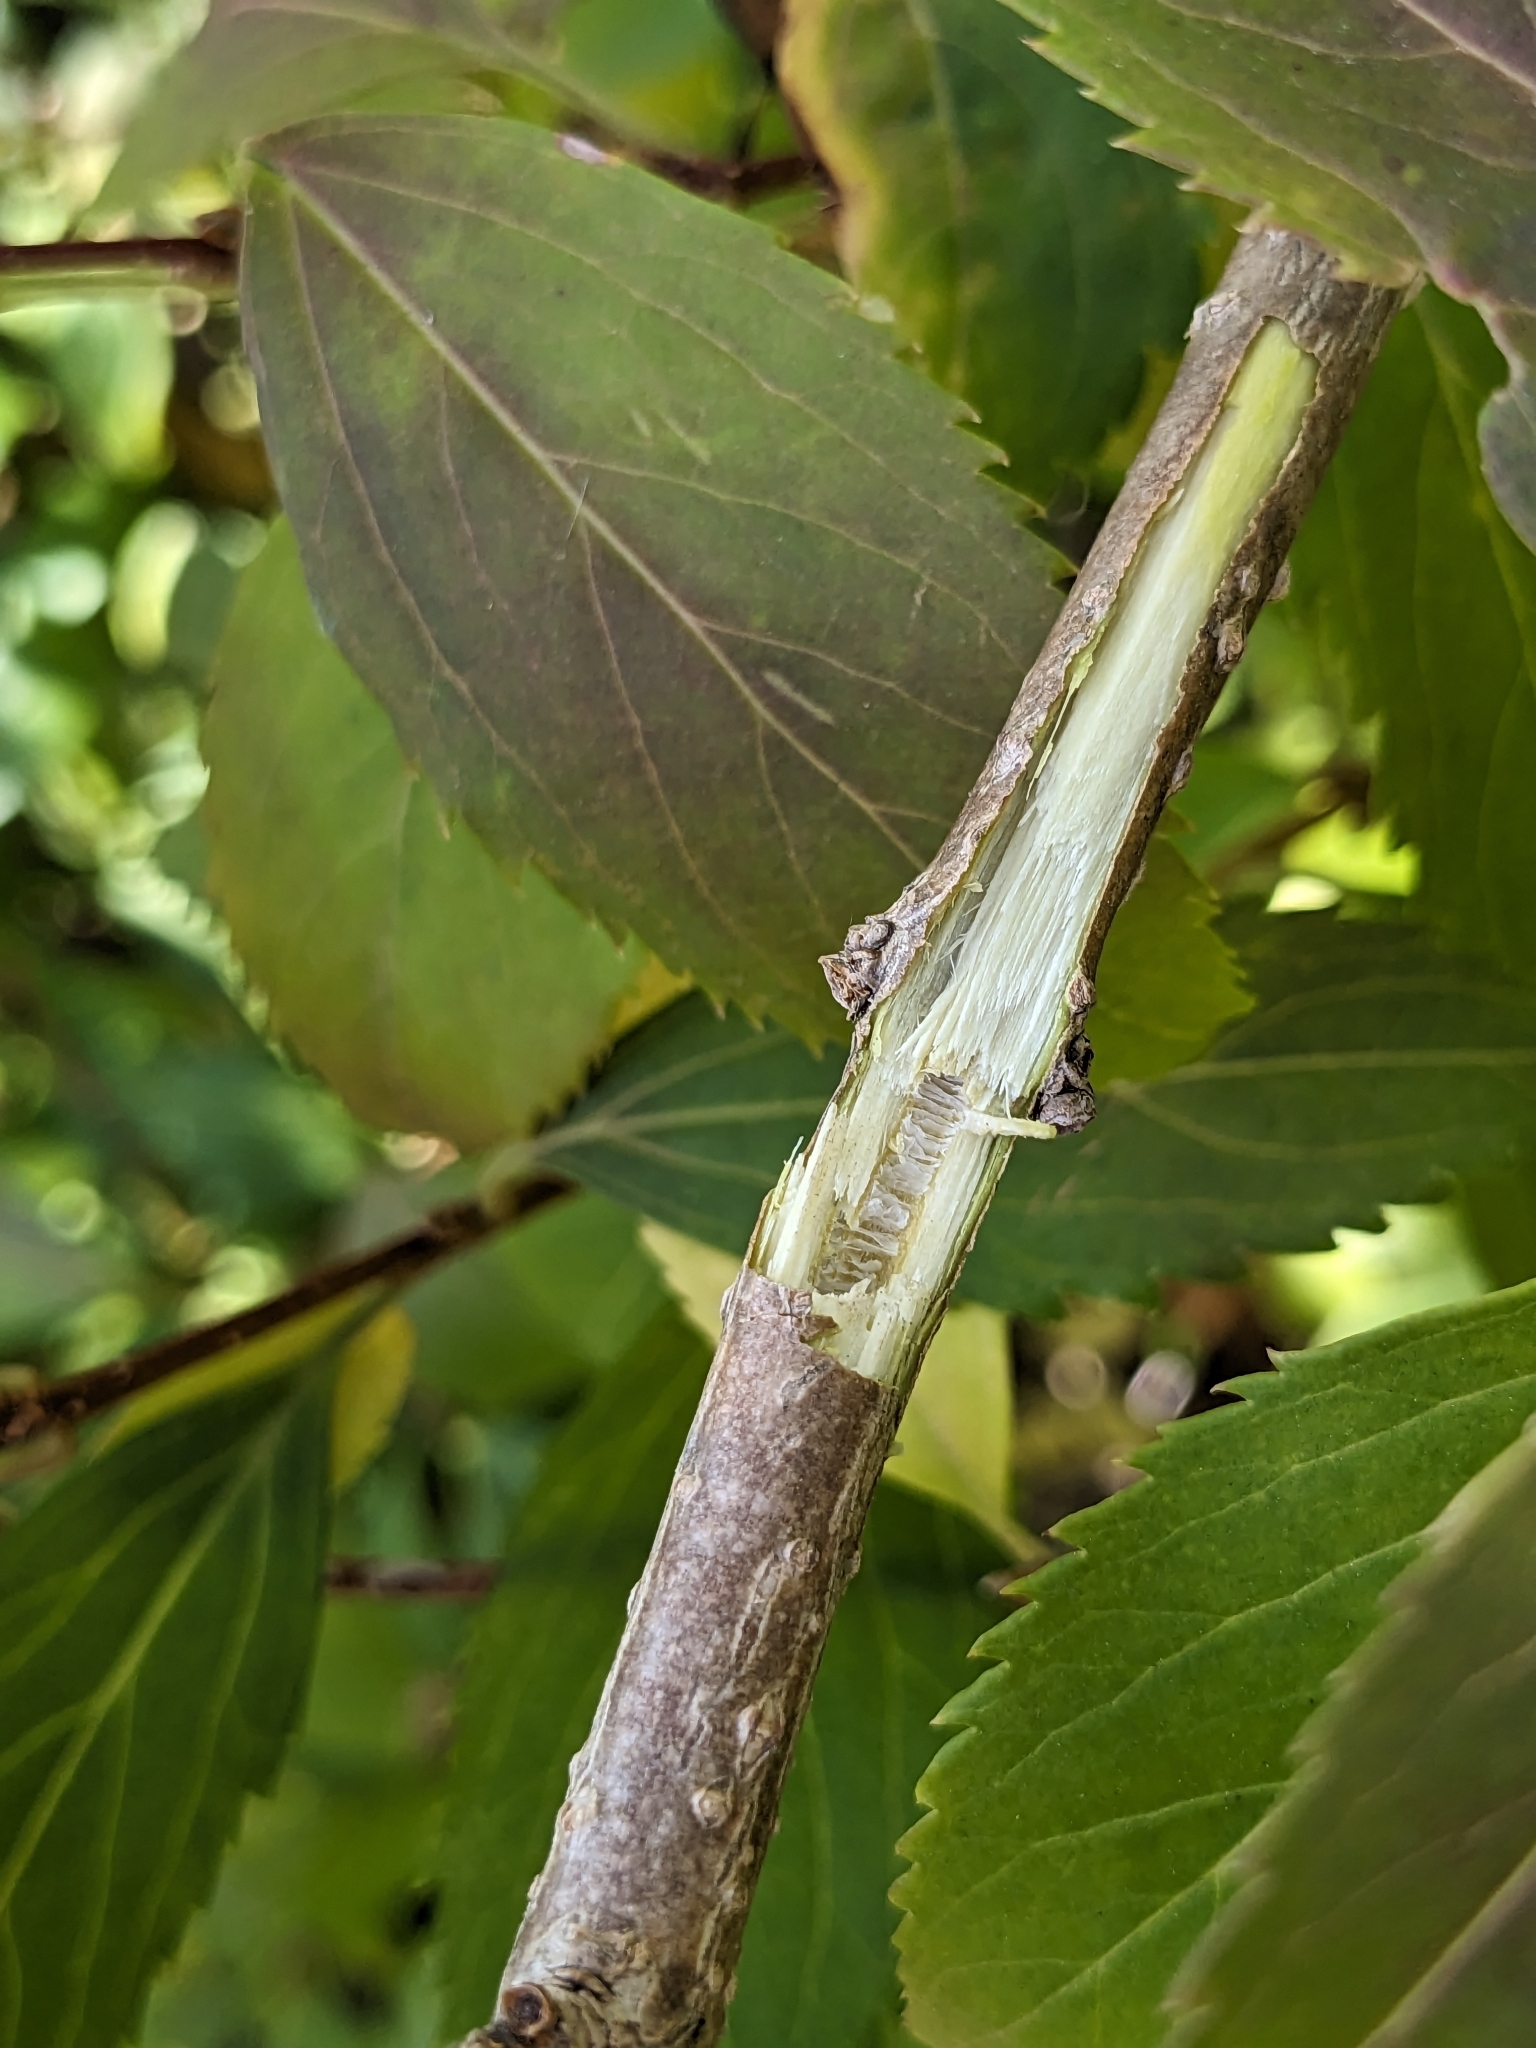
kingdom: Plantae
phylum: Tracheophyta
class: Magnoliopsida
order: Lamiales
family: Oleaceae
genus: Forsythia
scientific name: Forsythia intermedia
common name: Forsythia
